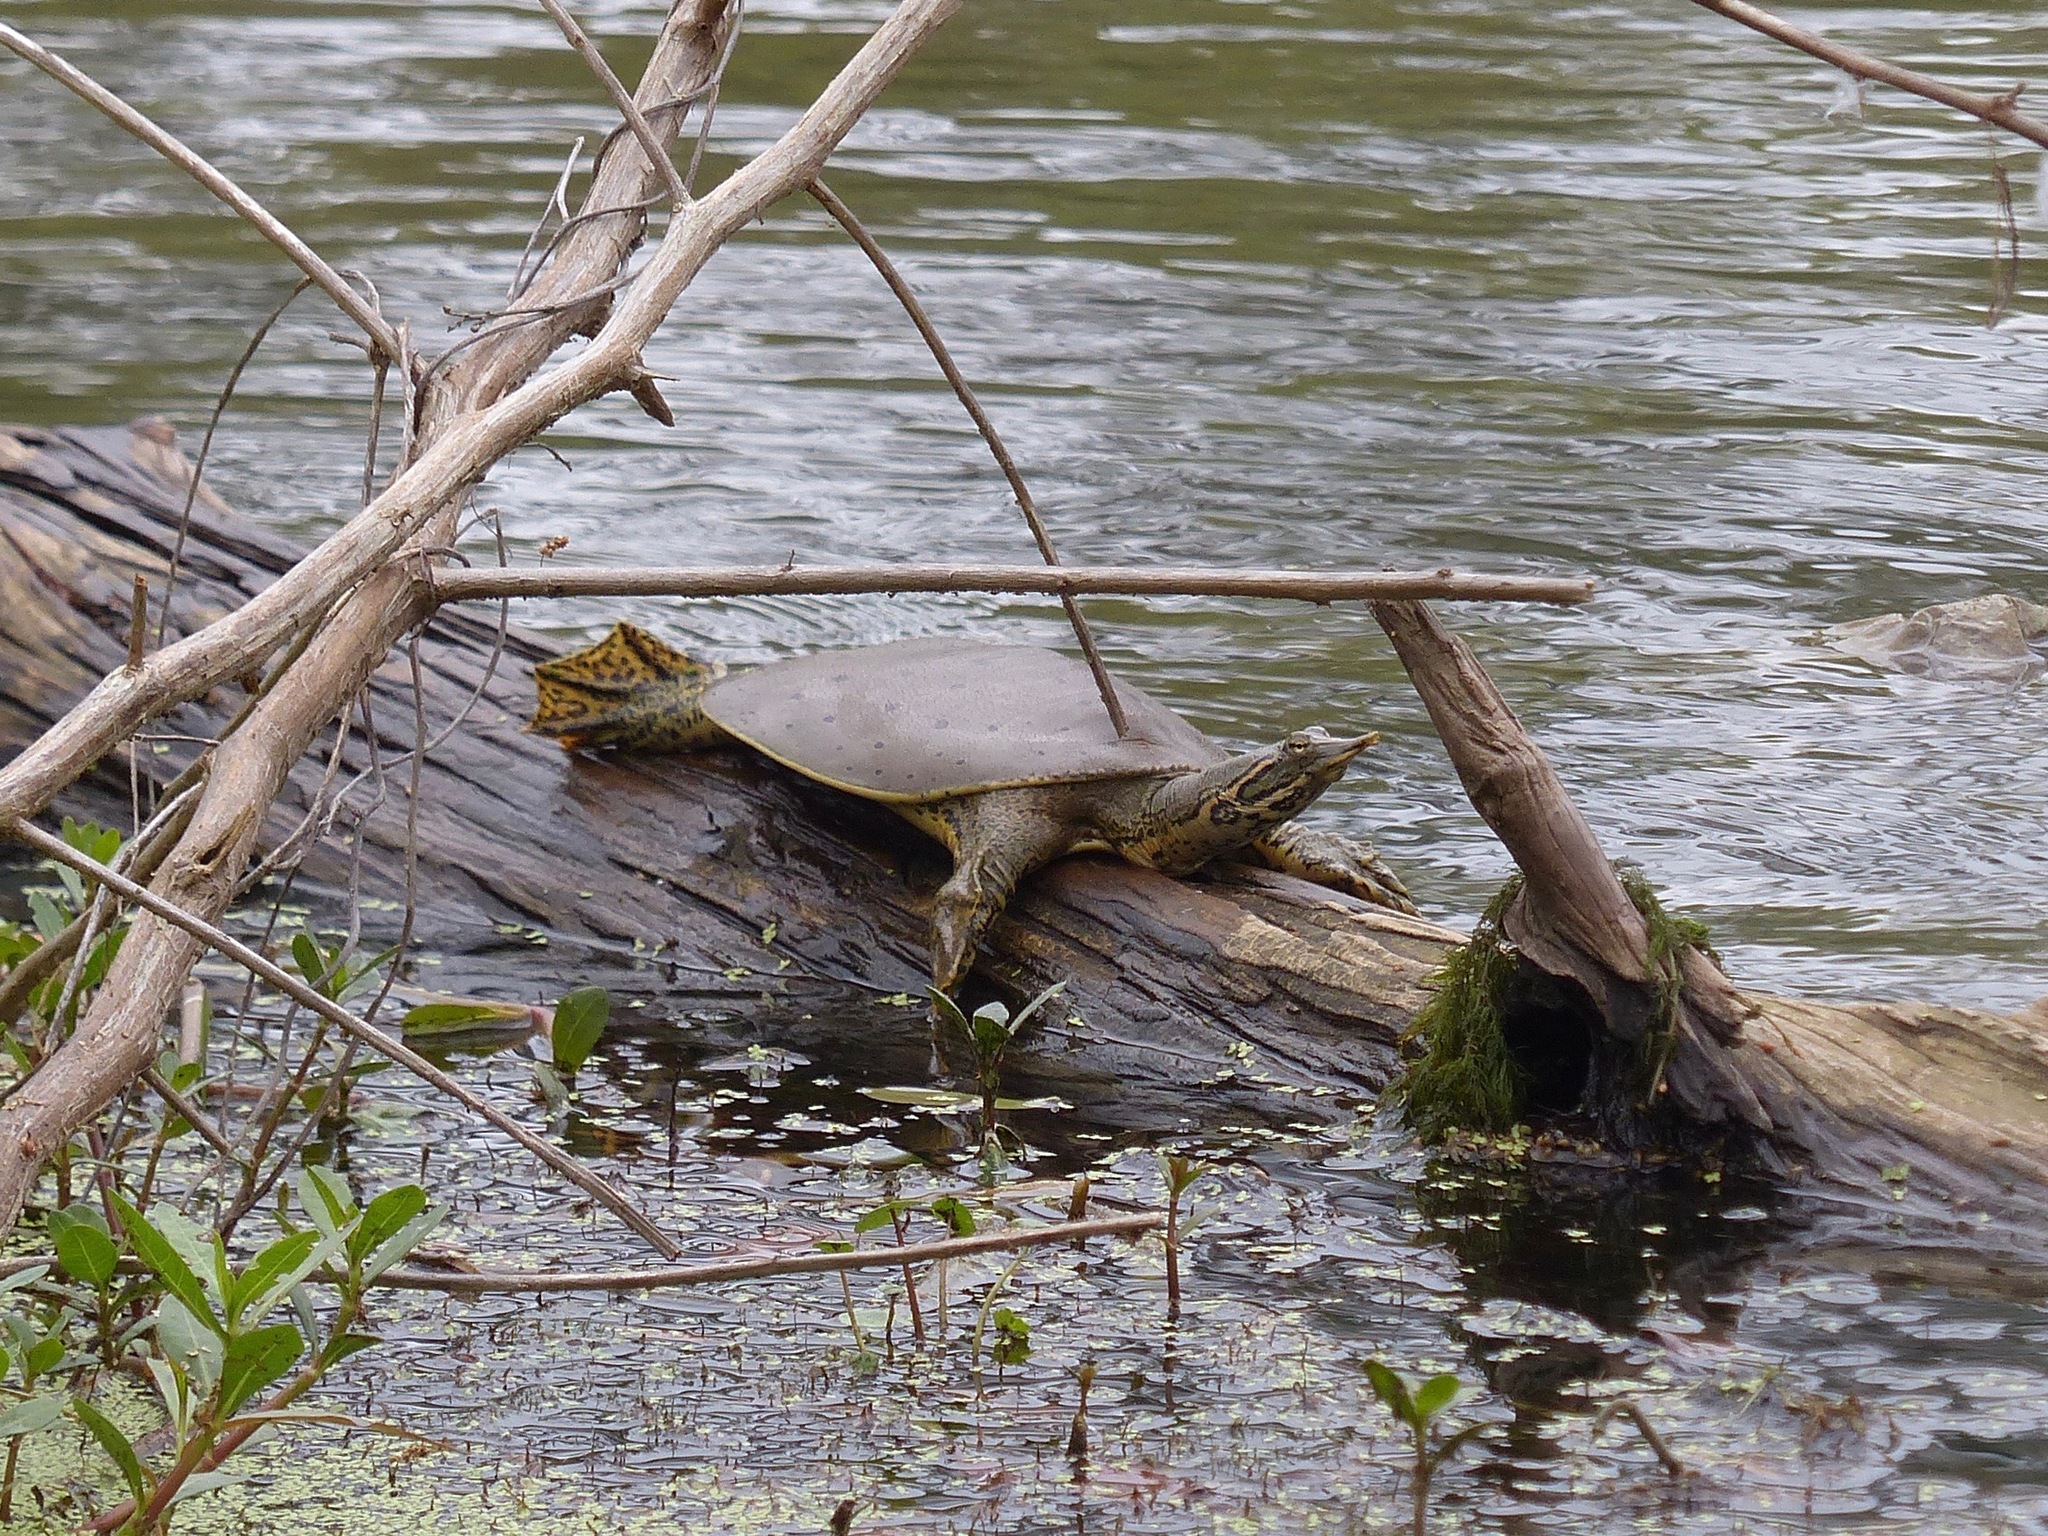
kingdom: Animalia
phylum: Chordata
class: Testudines
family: Trionychidae
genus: Apalone
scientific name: Apalone spinifera
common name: Spiny softshell turtle
